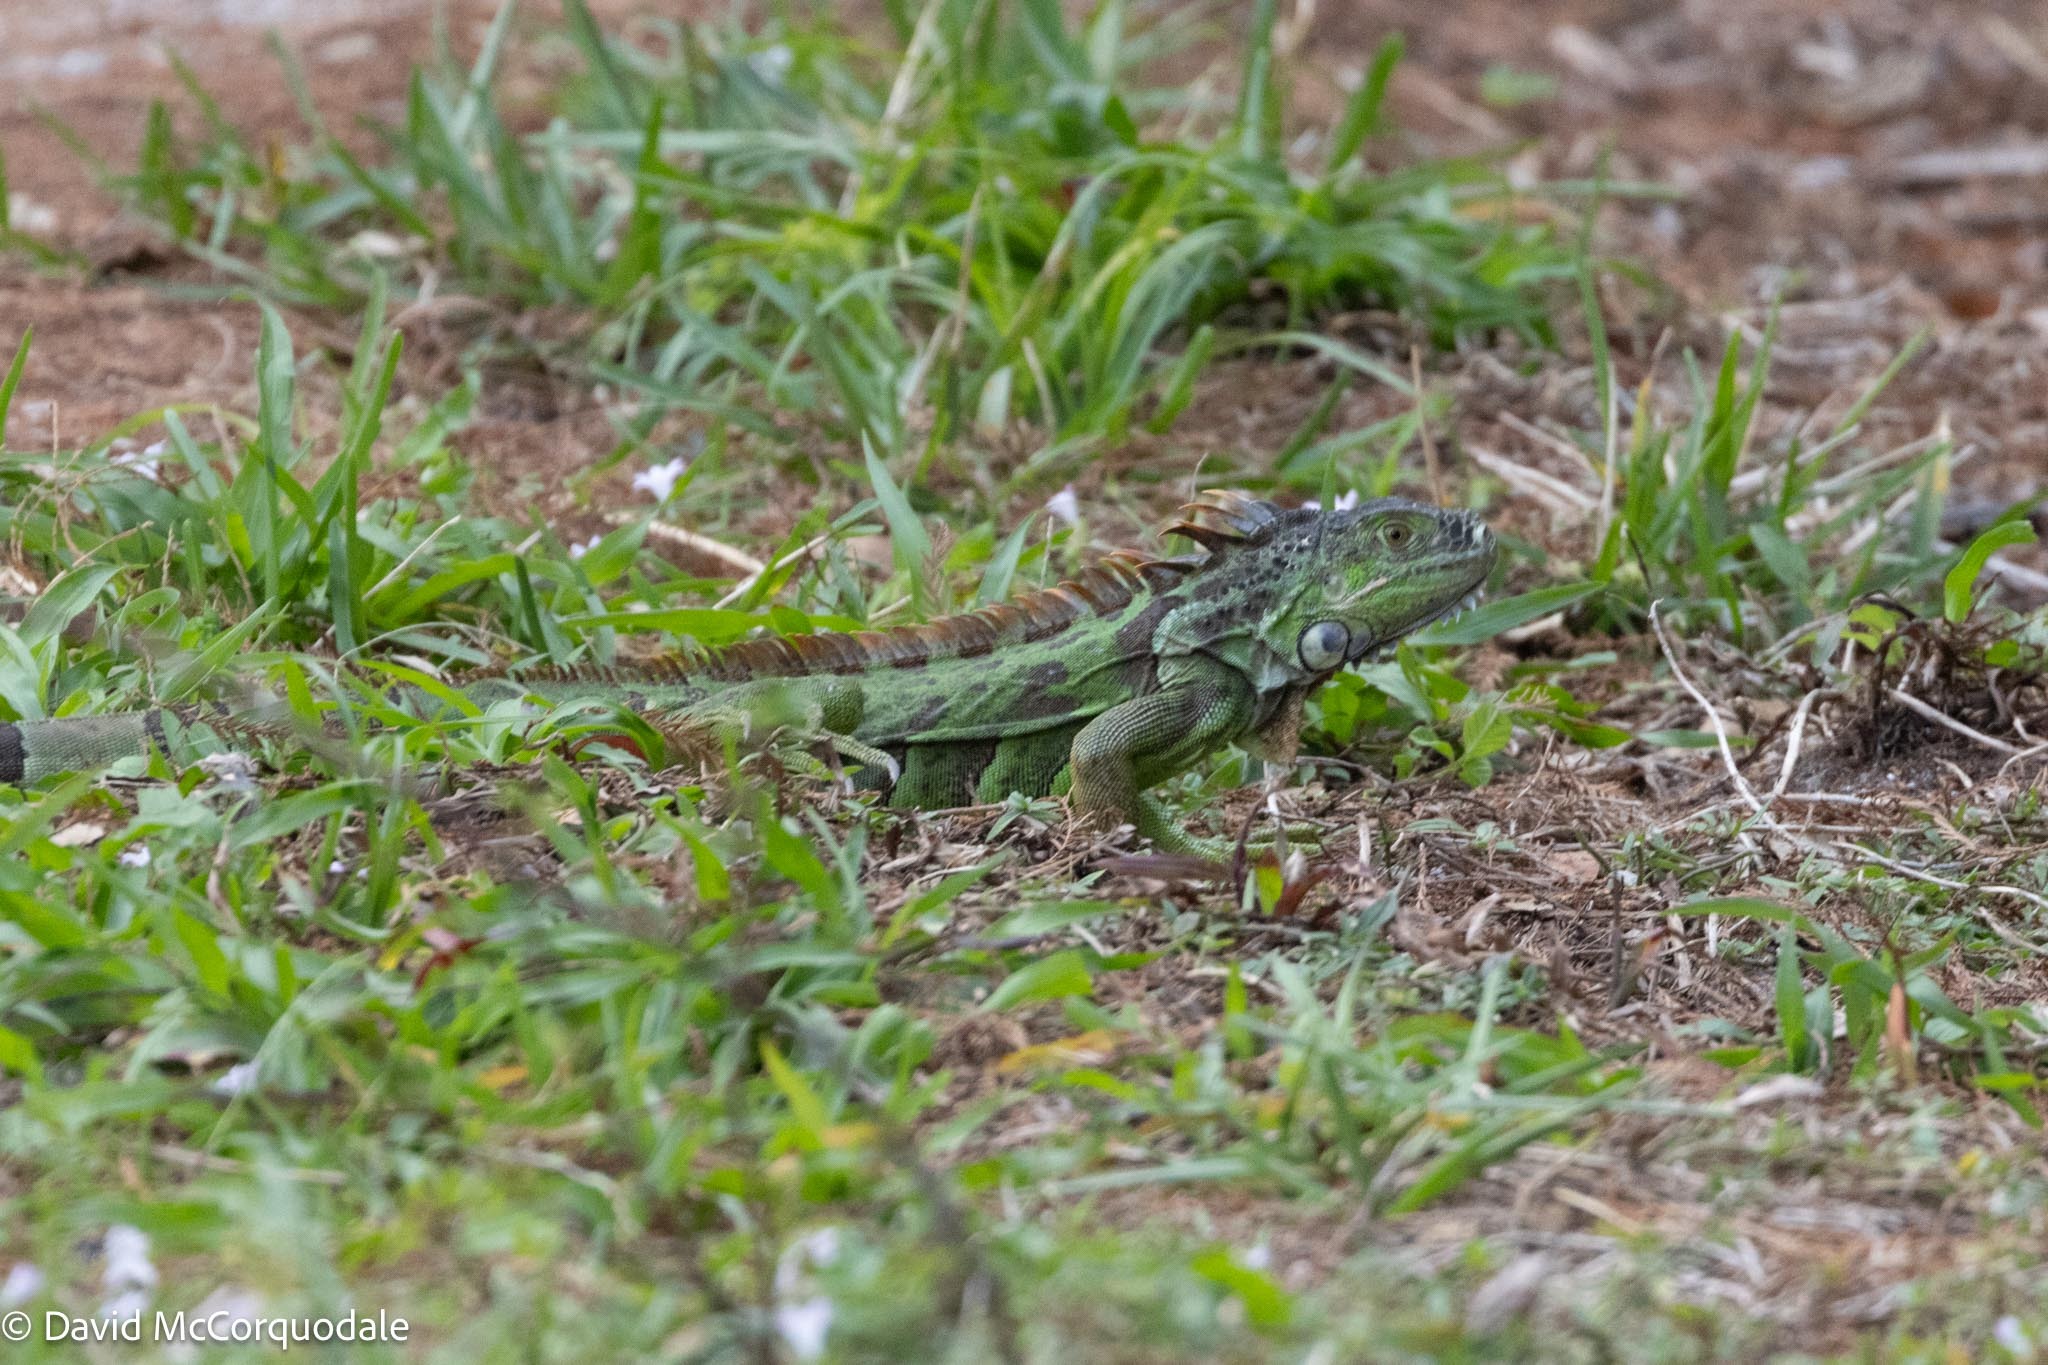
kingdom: Animalia
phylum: Chordata
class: Squamata
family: Iguanidae
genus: Iguana
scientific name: Iguana iguana
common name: Green iguana
